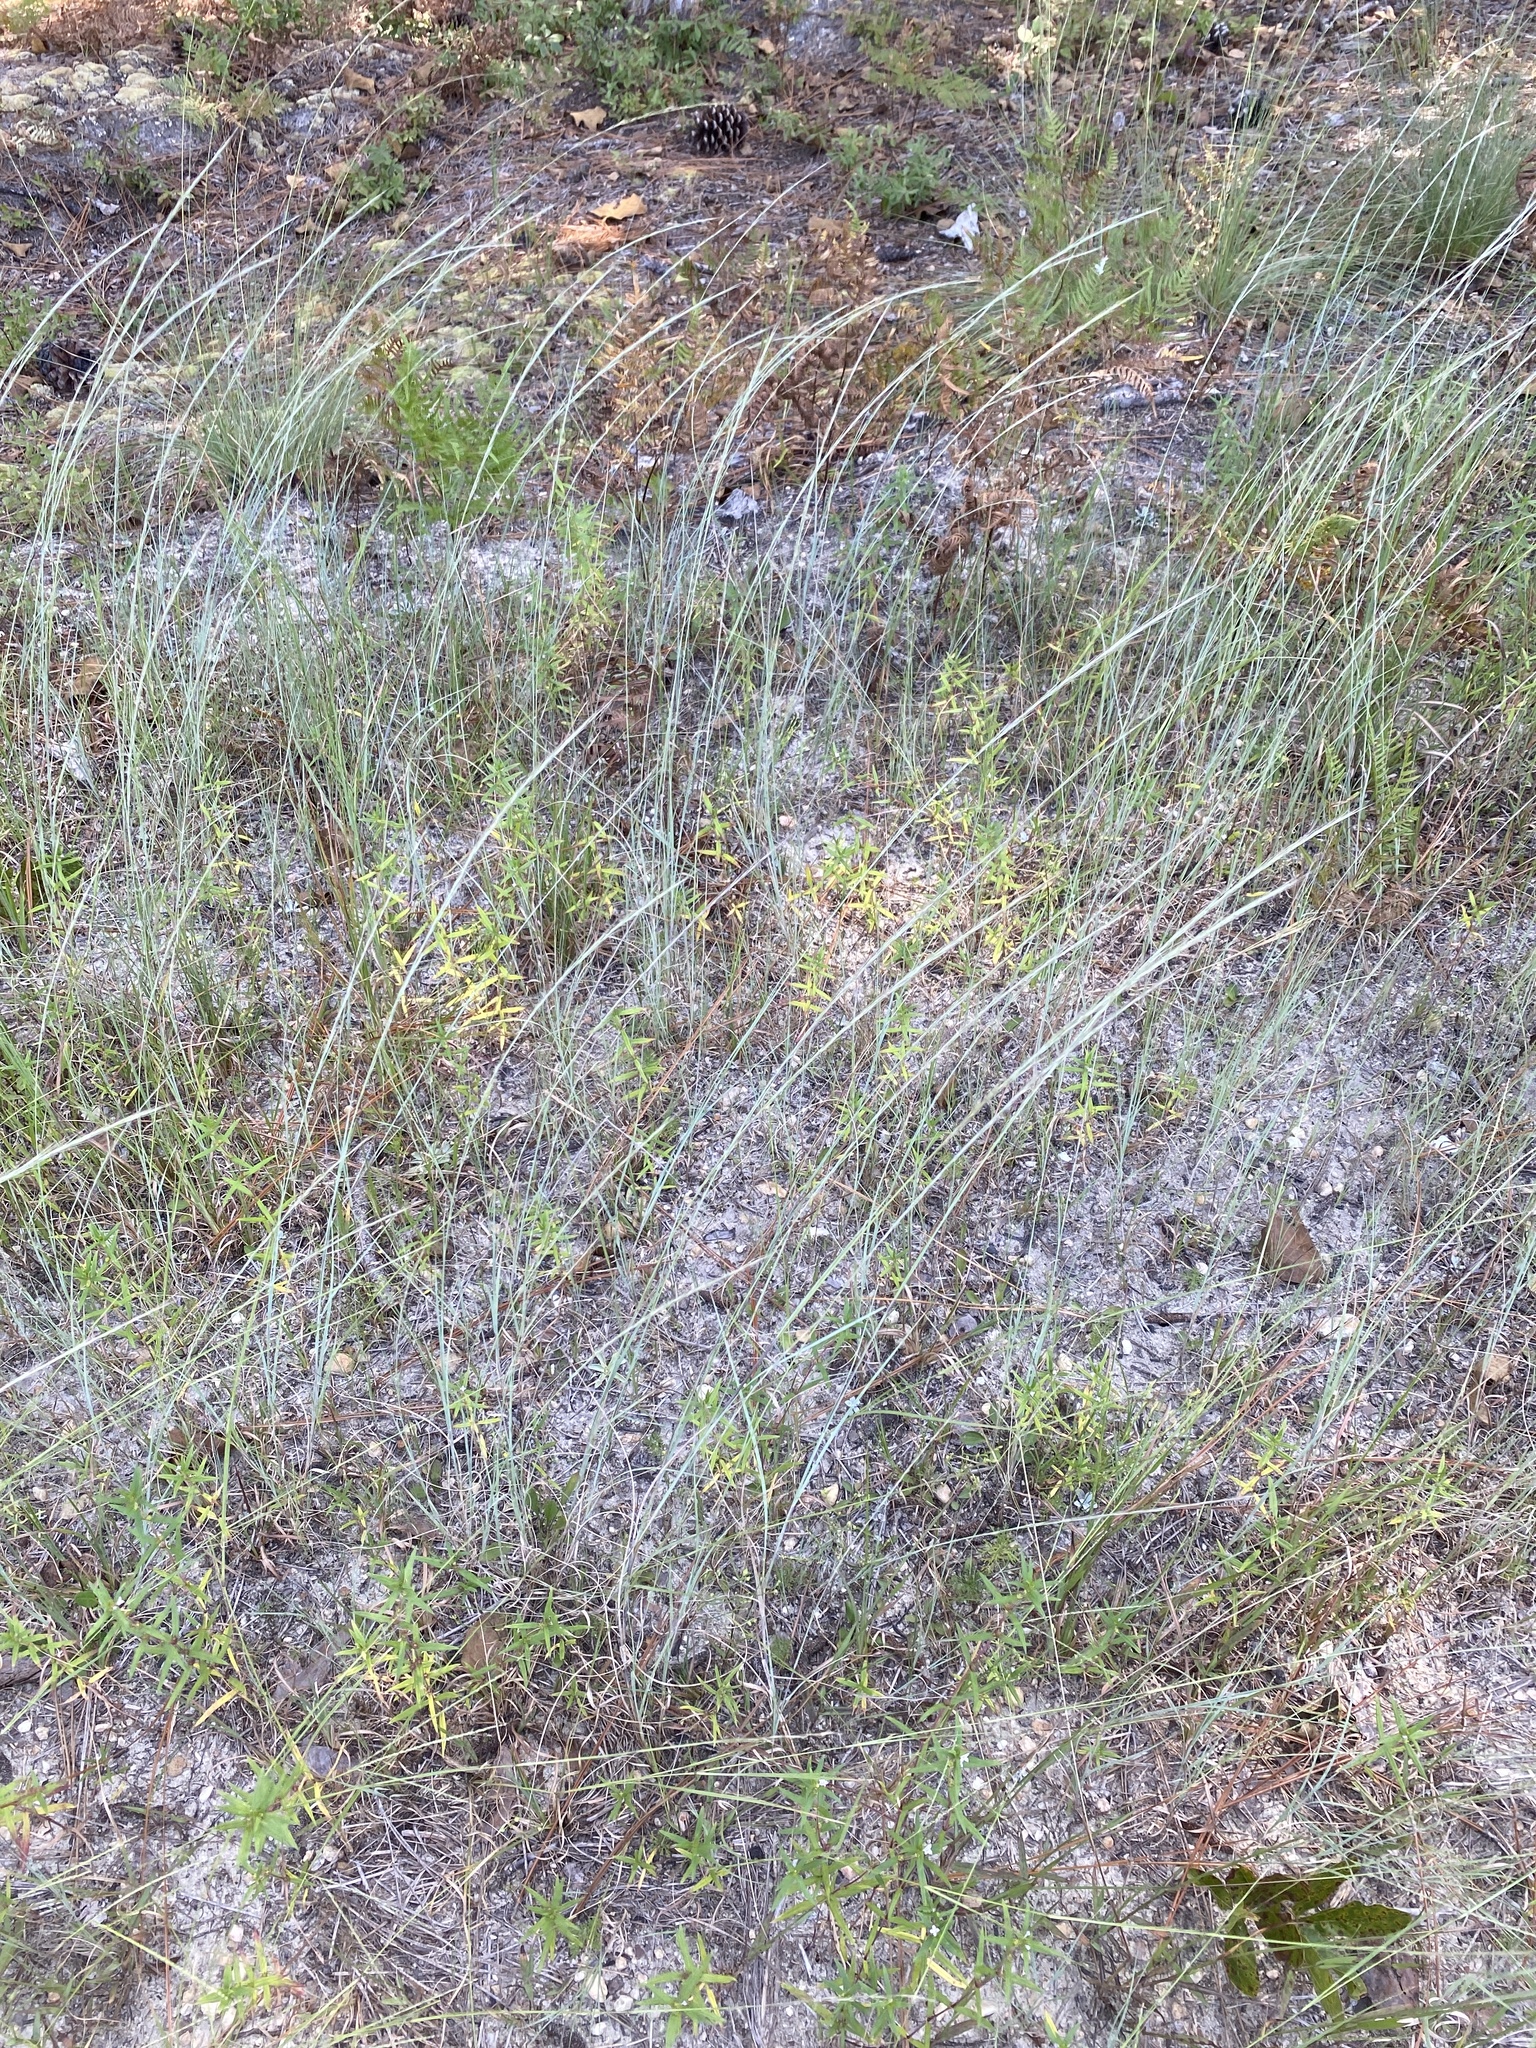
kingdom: Plantae
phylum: Tracheophyta
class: Liliopsida
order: Poales
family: Poaceae
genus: Aristida
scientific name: Aristida purpurascens
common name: Arrow-feather
